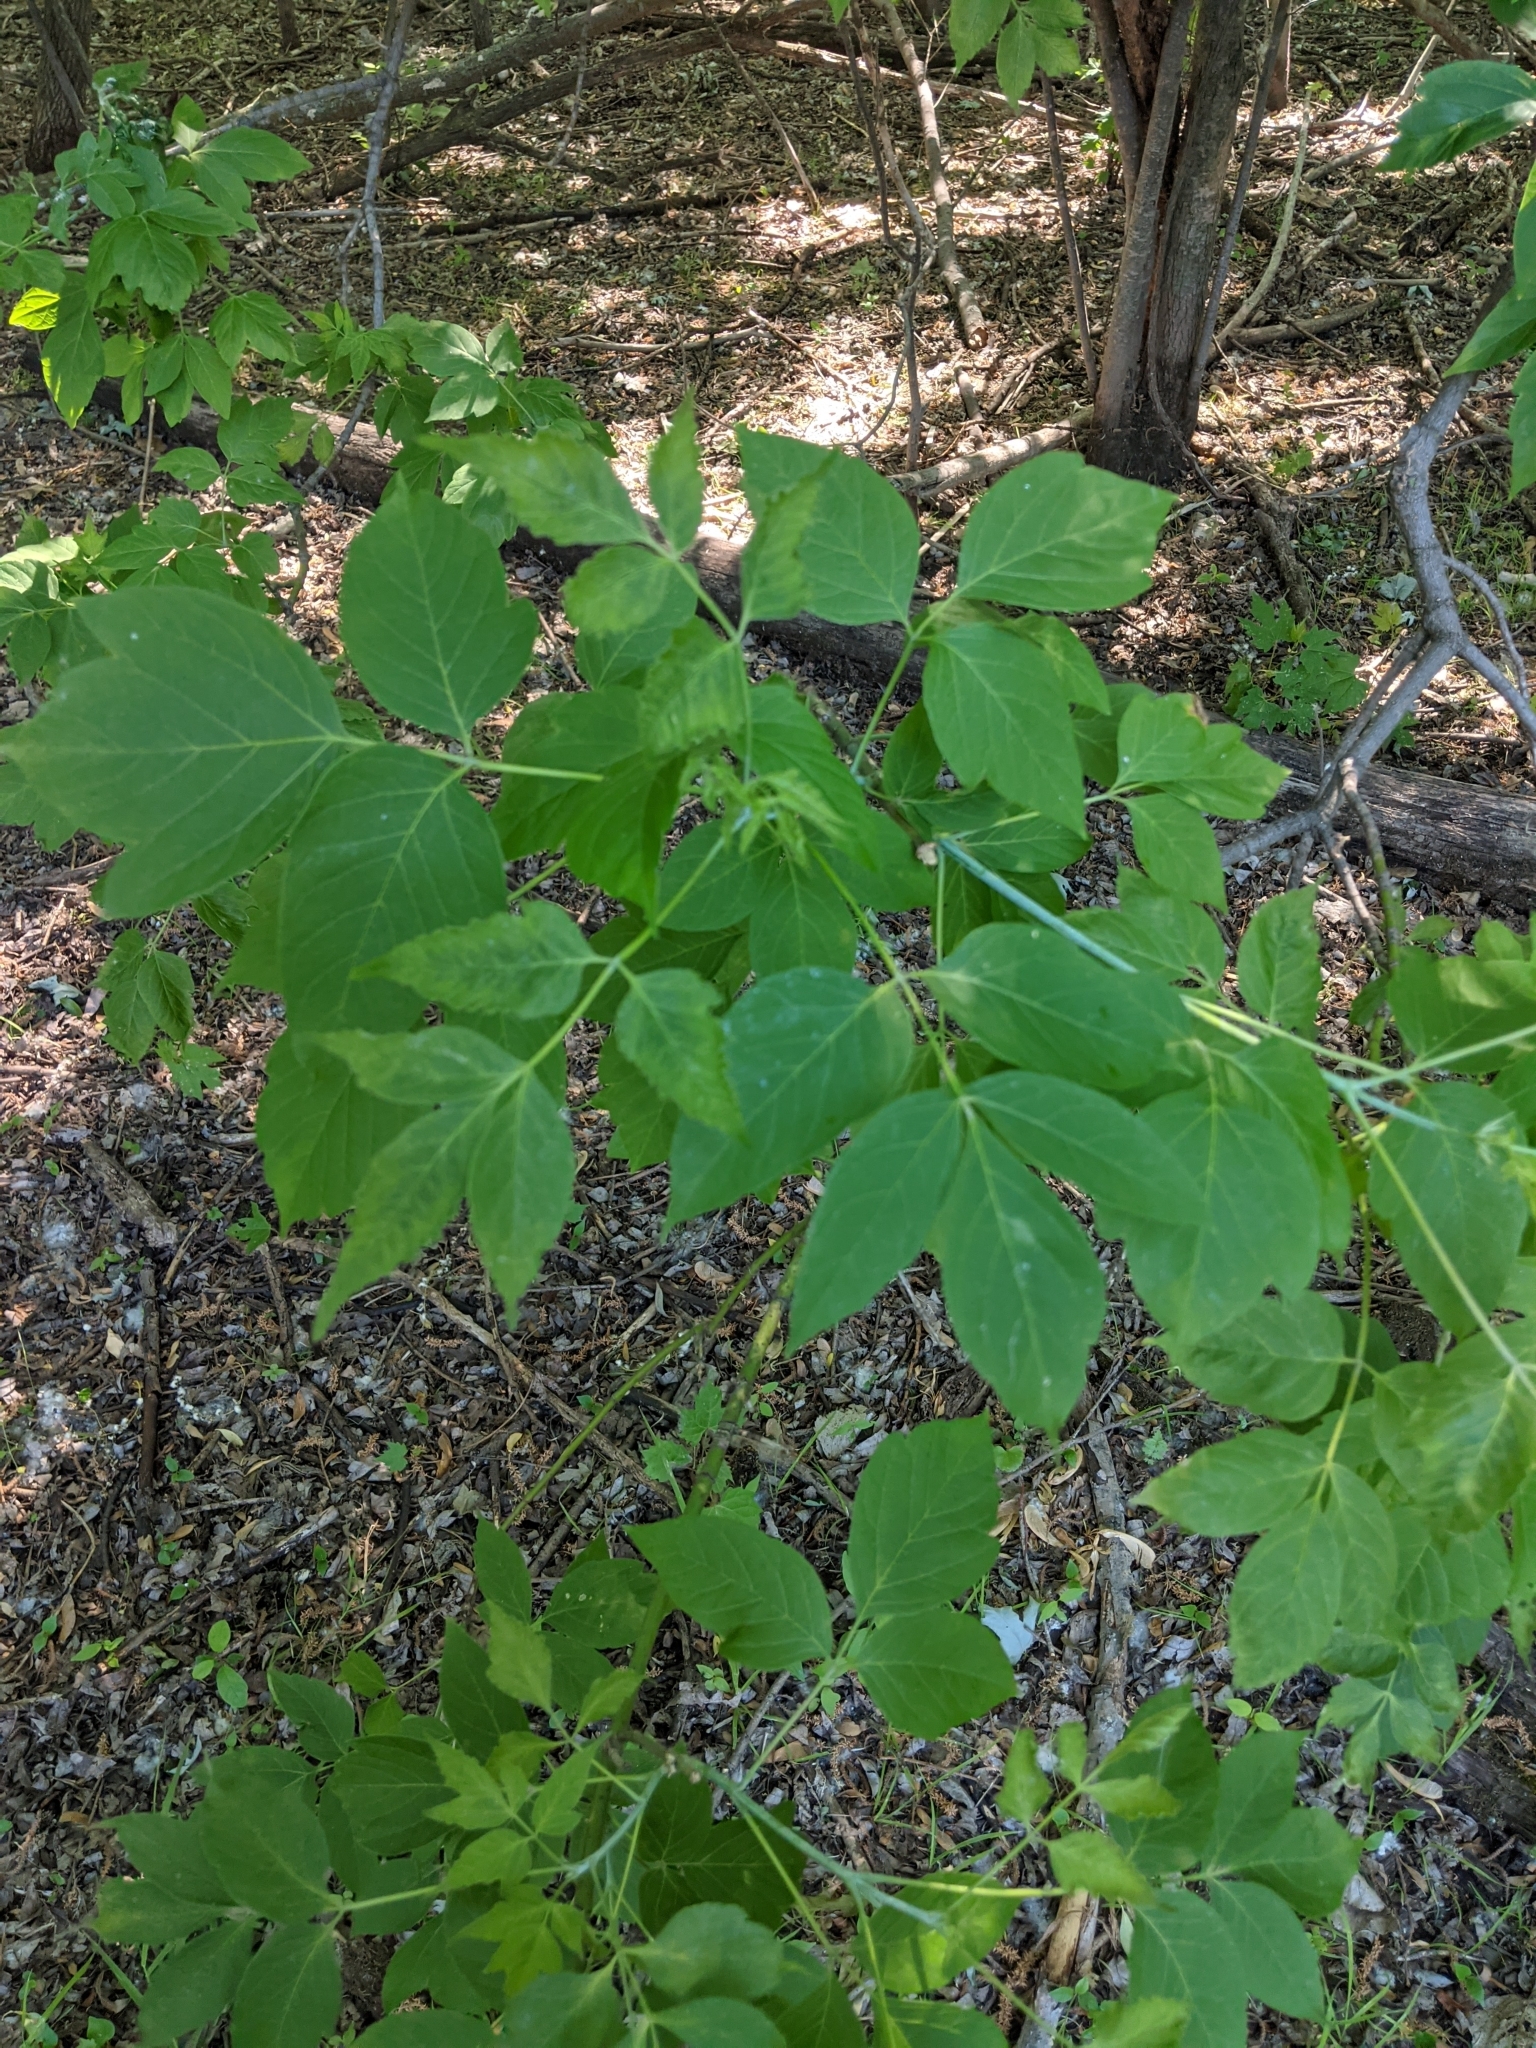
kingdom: Plantae
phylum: Tracheophyta
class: Magnoliopsida
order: Sapindales
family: Sapindaceae
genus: Acer
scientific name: Acer negundo
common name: Ashleaf maple
